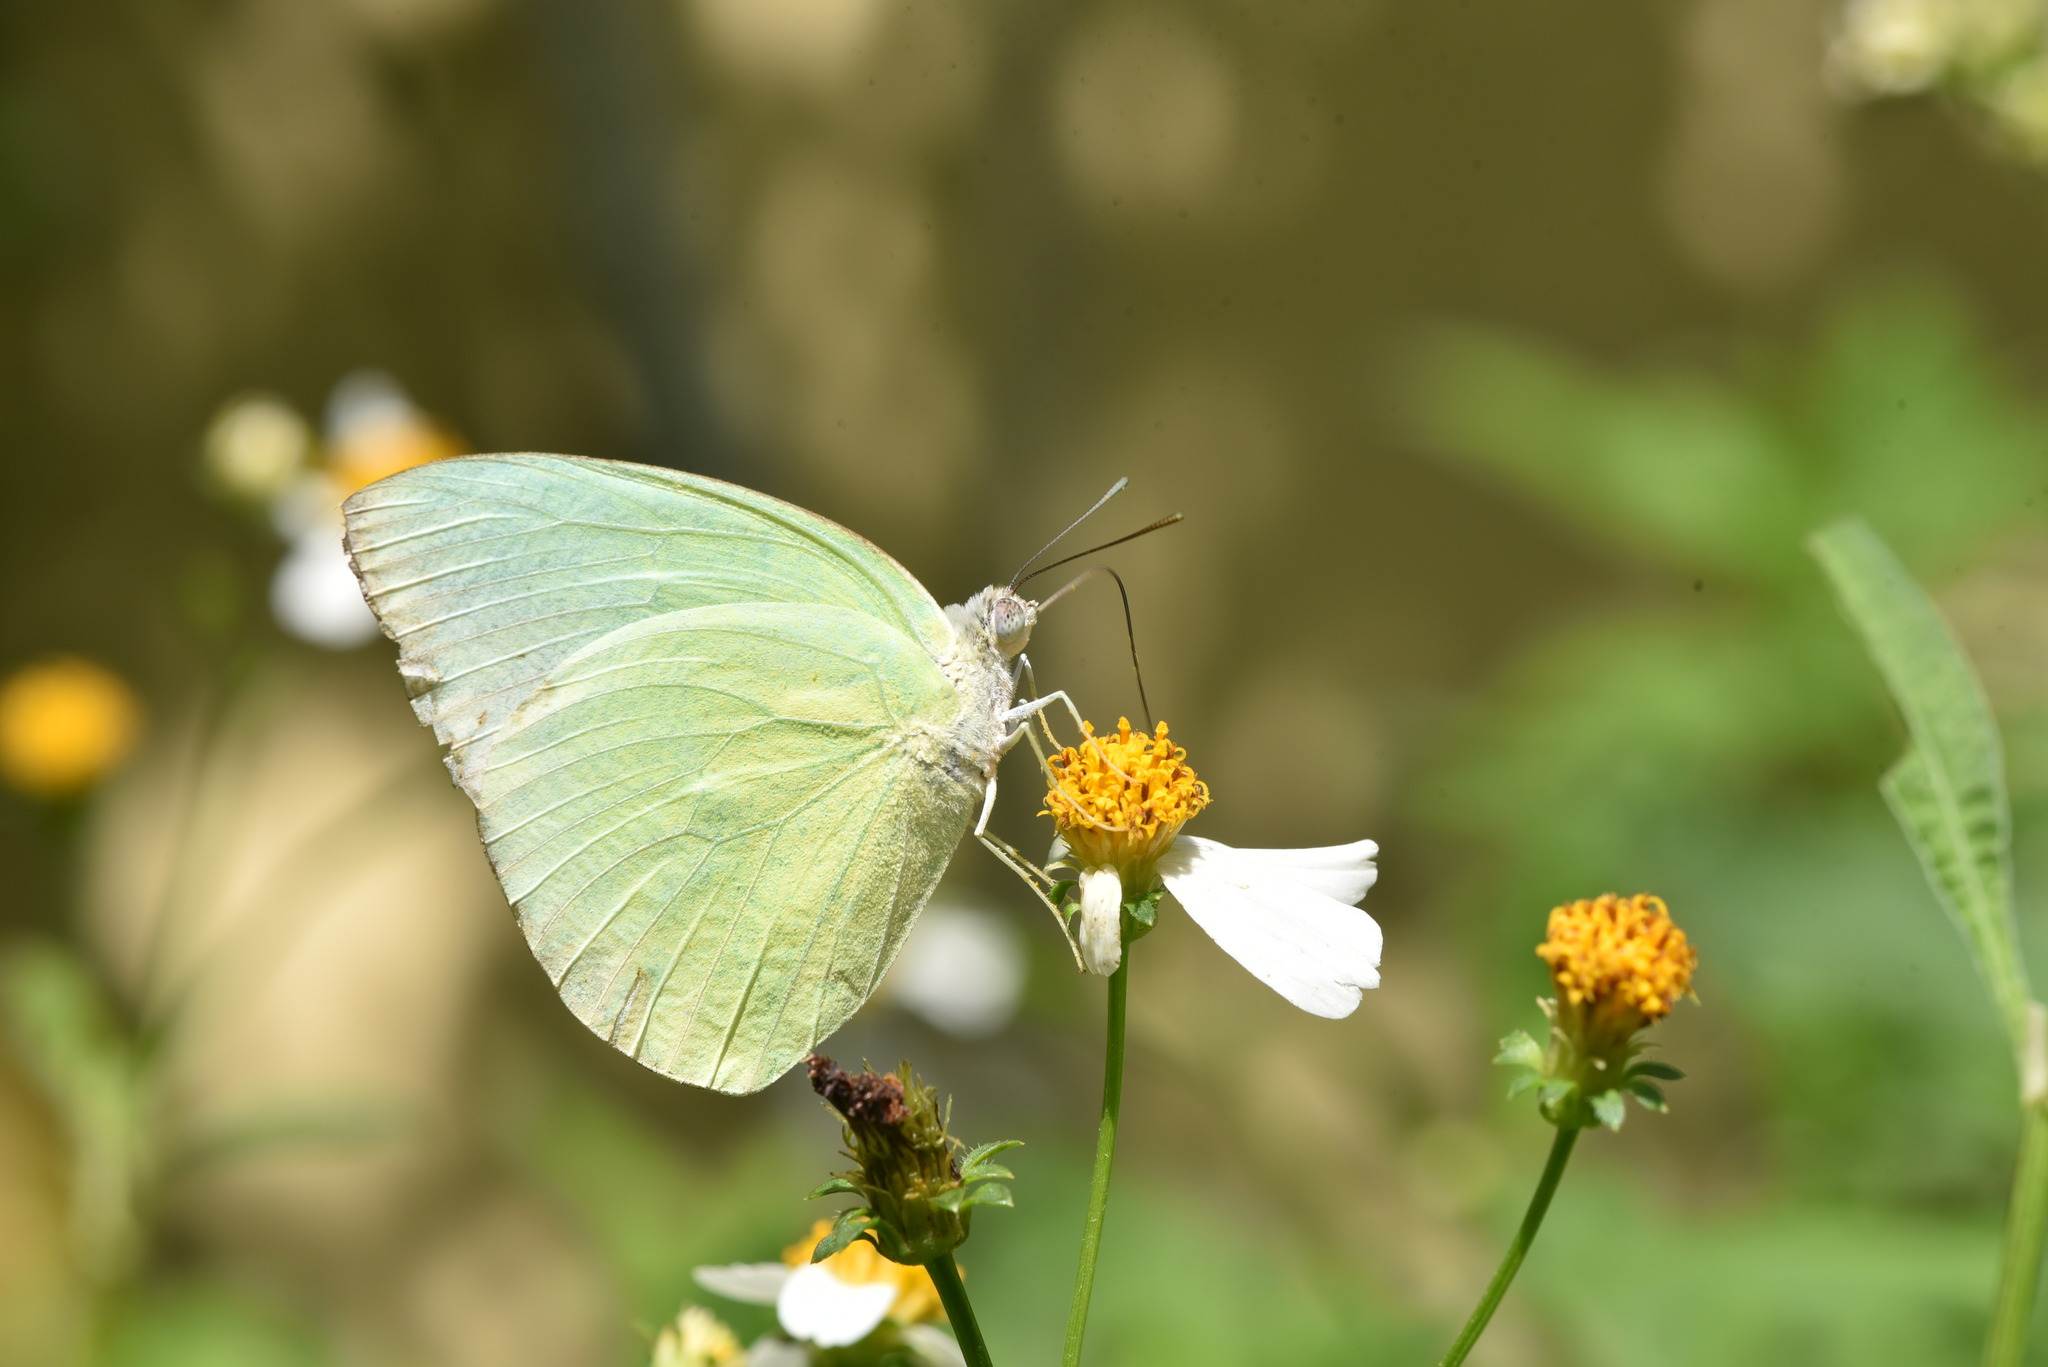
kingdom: Animalia
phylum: Arthropoda
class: Insecta
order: Lepidoptera
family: Pieridae
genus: Catopsilia
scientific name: Catopsilia pomona
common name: Common emigrant
